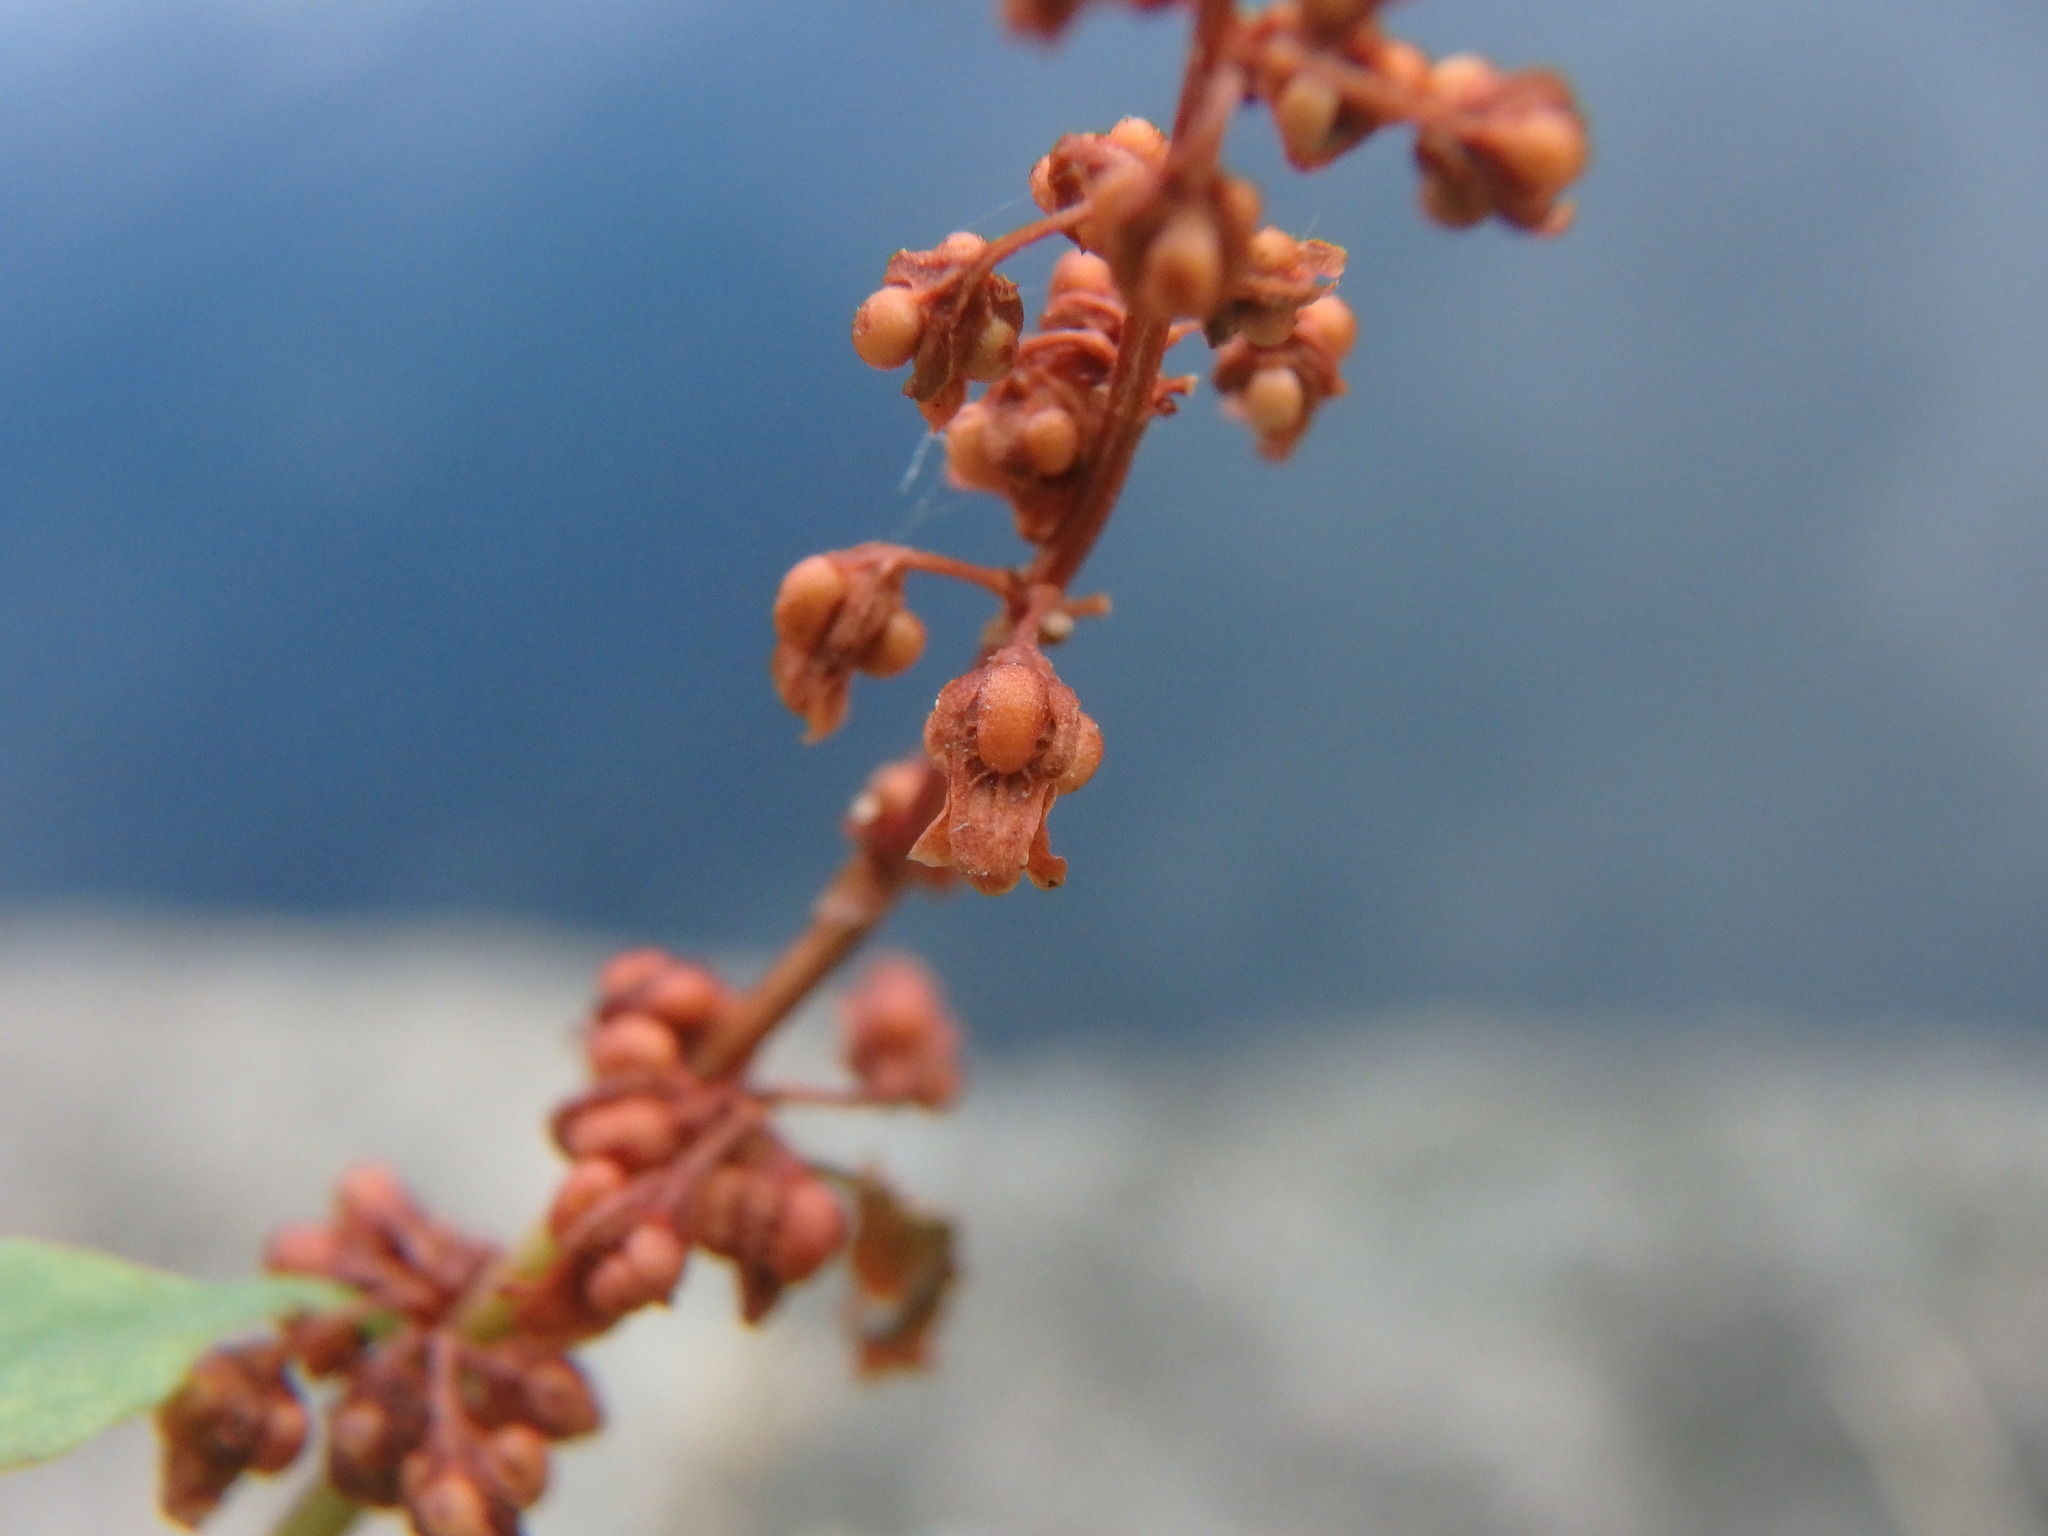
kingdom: Plantae
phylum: Tracheophyta
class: Magnoliopsida
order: Caryophyllales
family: Polygonaceae
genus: Rumex
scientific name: Rumex conglomeratus
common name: Clustered dock
